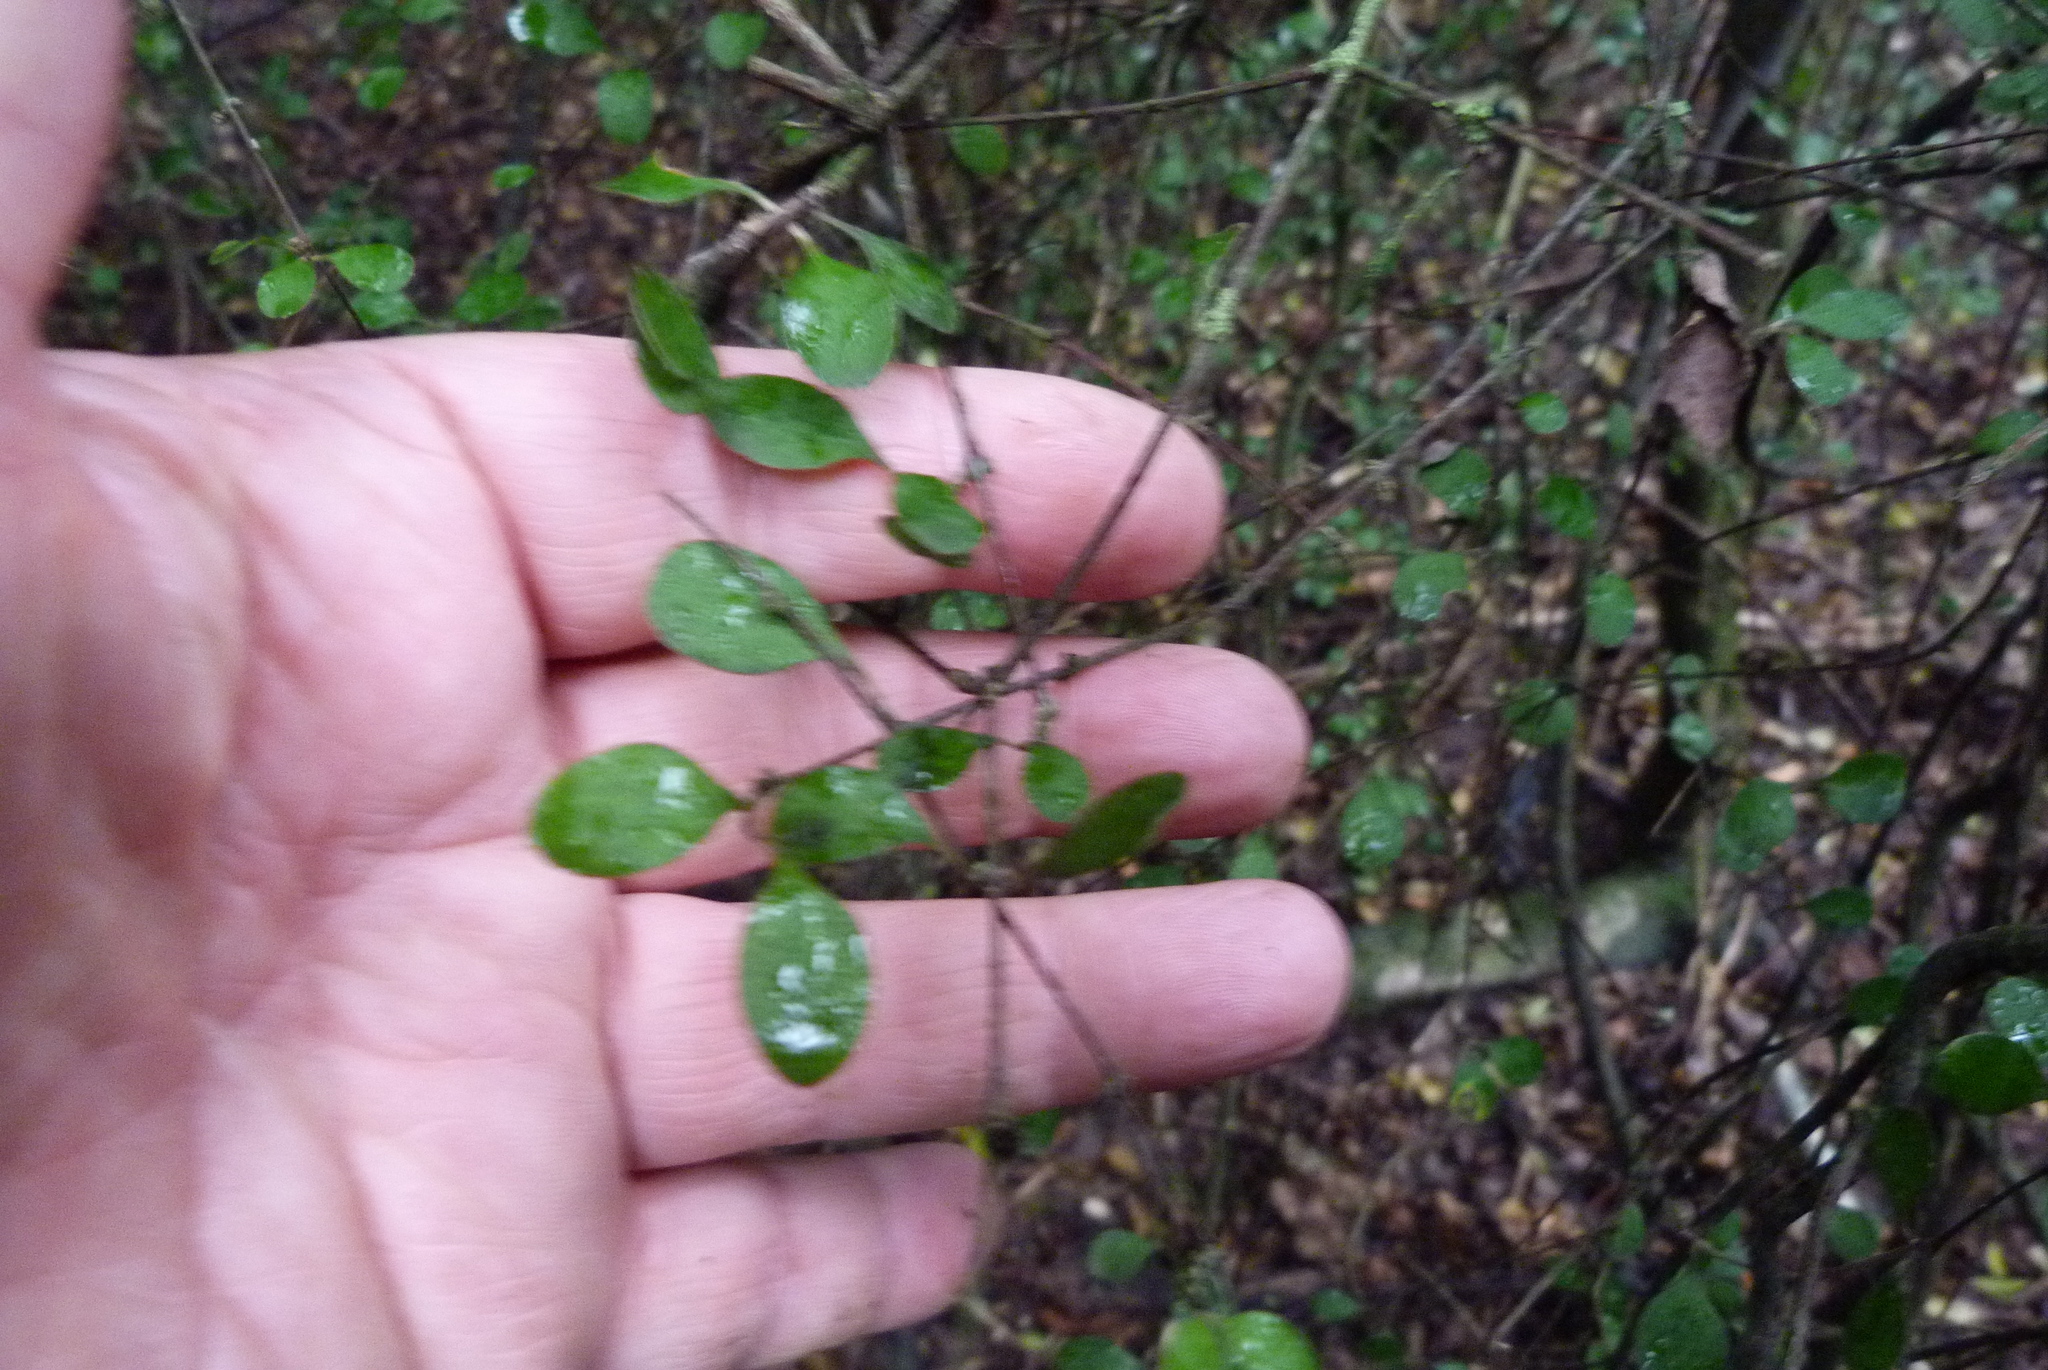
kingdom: Plantae
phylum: Tracheophyta
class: Magnoliopsida
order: Gentianales
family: Rubiaceae
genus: Coprosma
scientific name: Coprosma rigida
